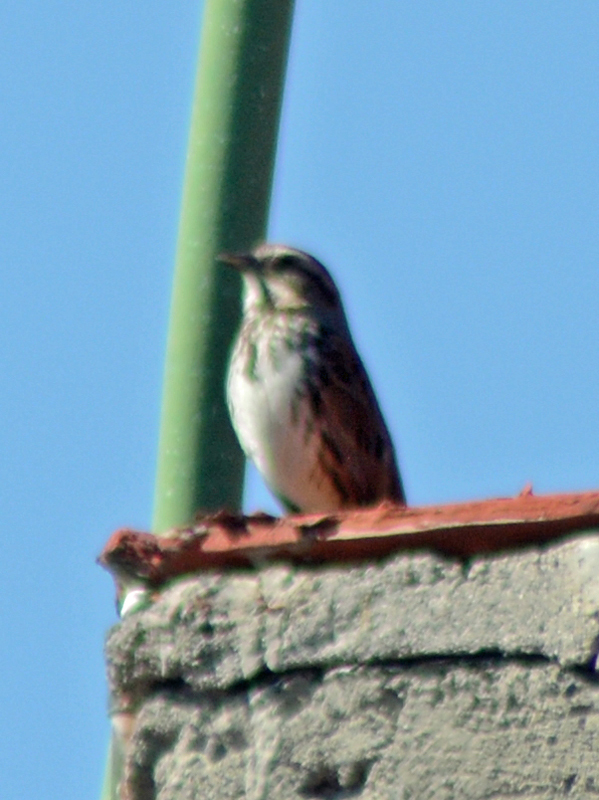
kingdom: Animalia
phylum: Chordata
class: Aves
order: Passeriformes
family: Passerellidae
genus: Melospiza
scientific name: Melospiza melodia
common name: Song sparrow
